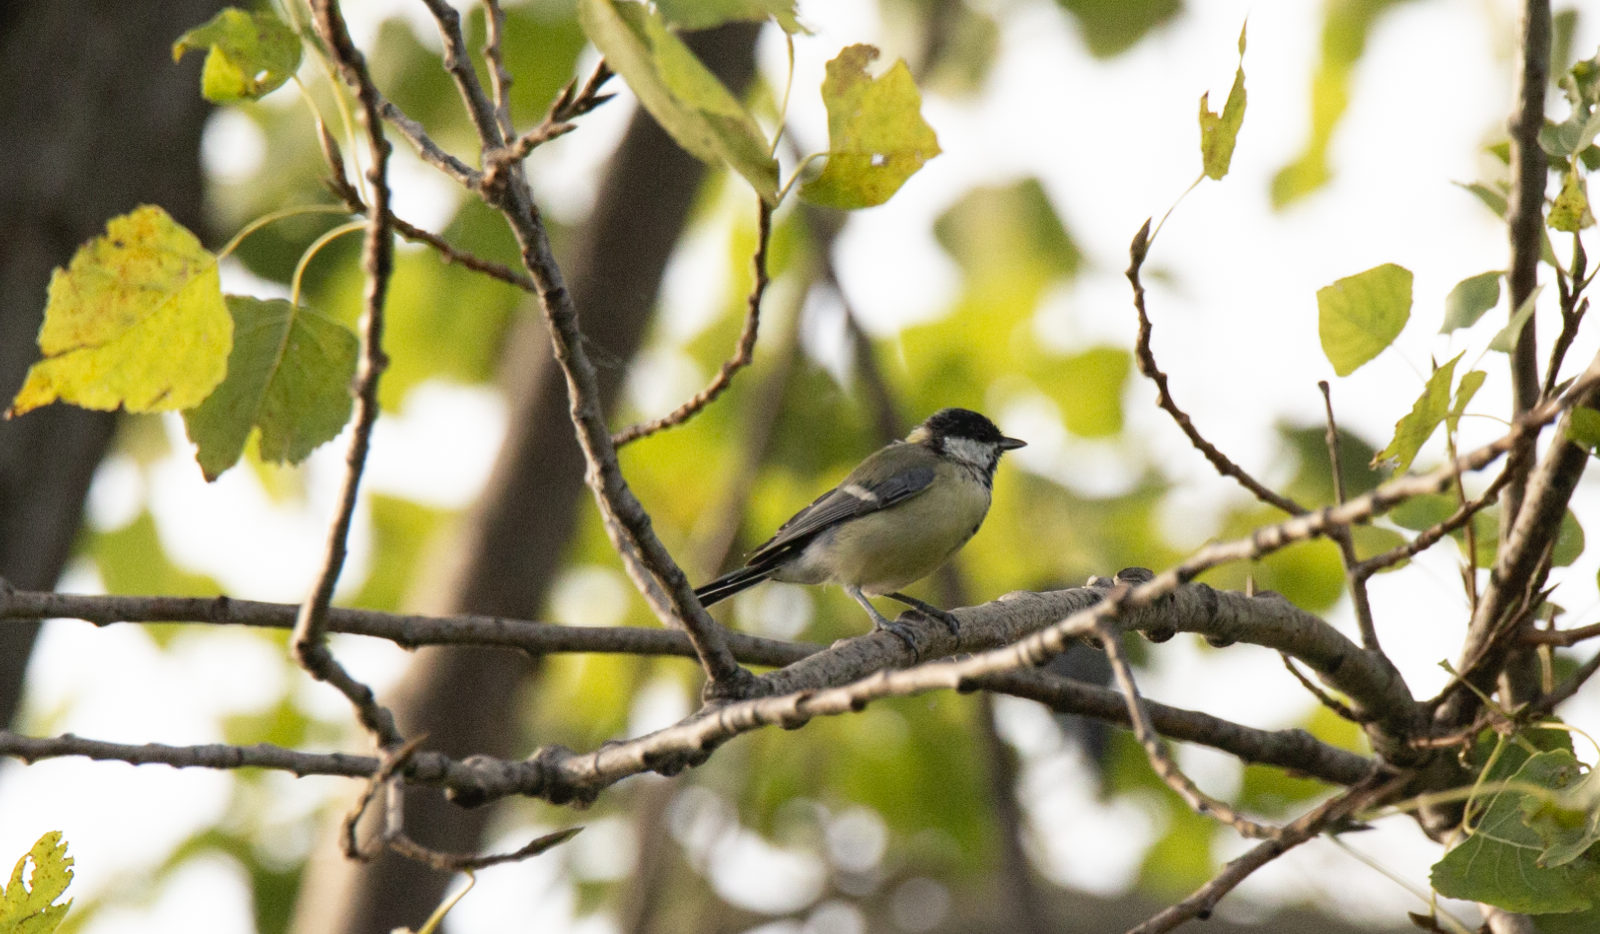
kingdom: Animalia
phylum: Chordata
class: Aves
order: Passeriformes
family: Paridae
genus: Parus
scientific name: Parus major
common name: Great tit
